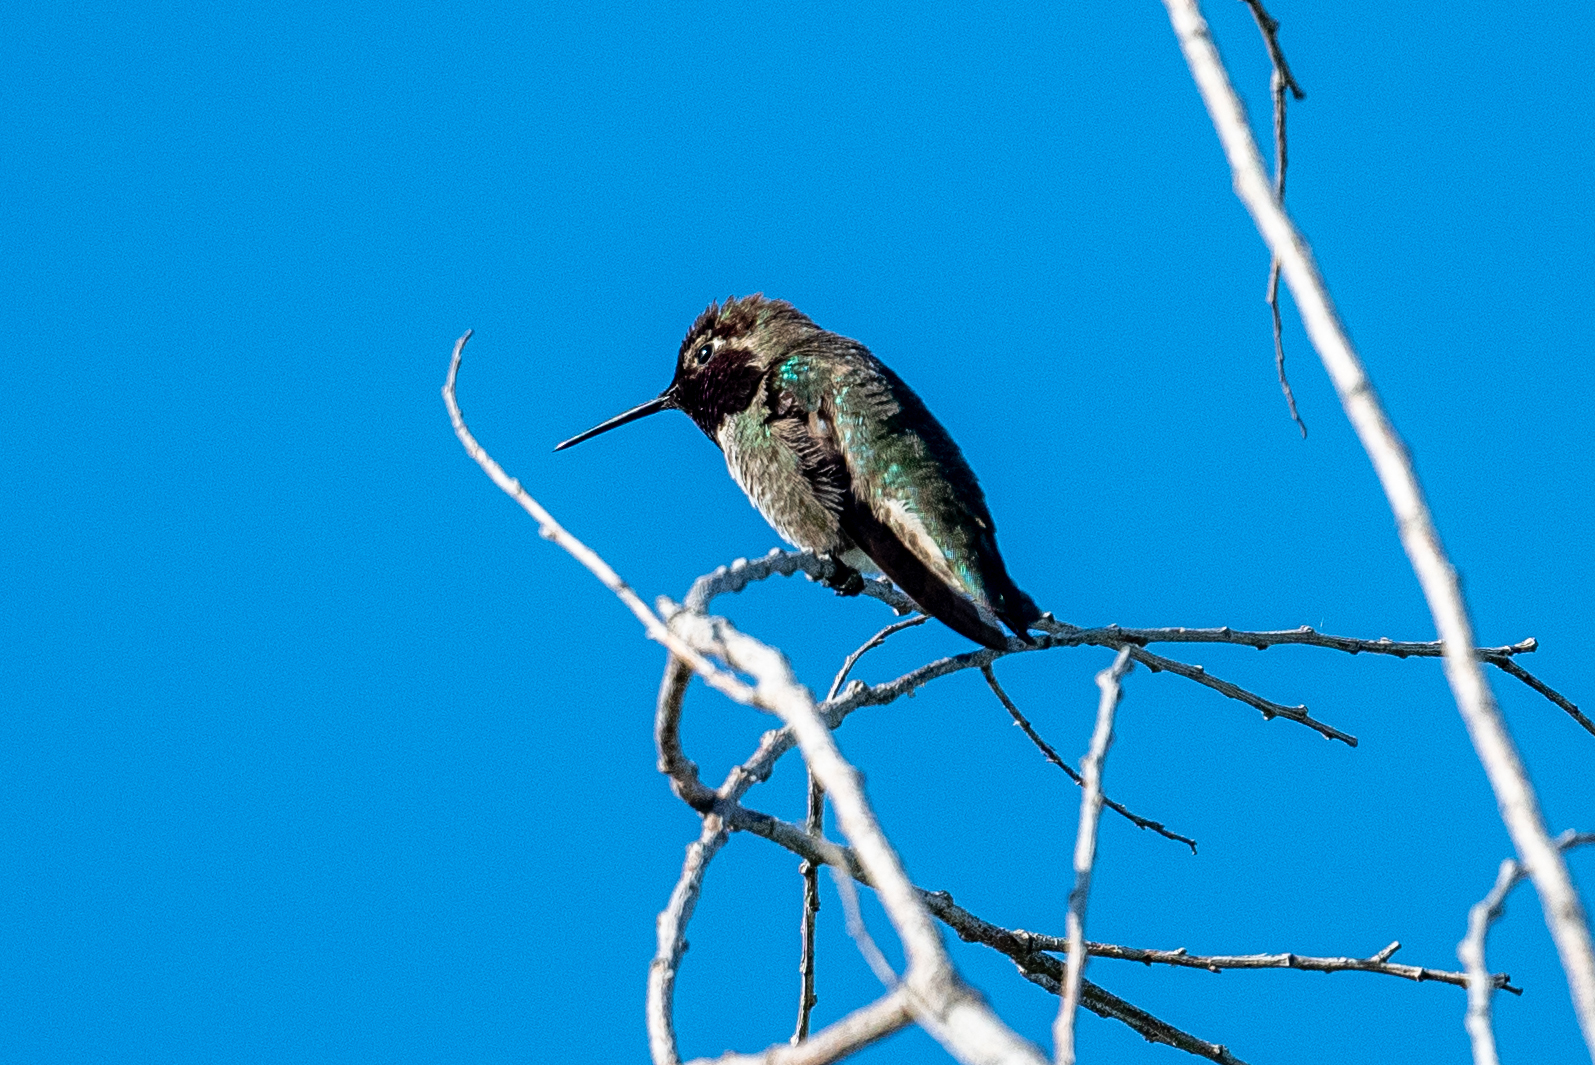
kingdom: Animalia
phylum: Chordata
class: Aves
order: Apodiformes
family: Trochilidae
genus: Calypte
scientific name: Calypte anna
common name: Anna's hummingbird
